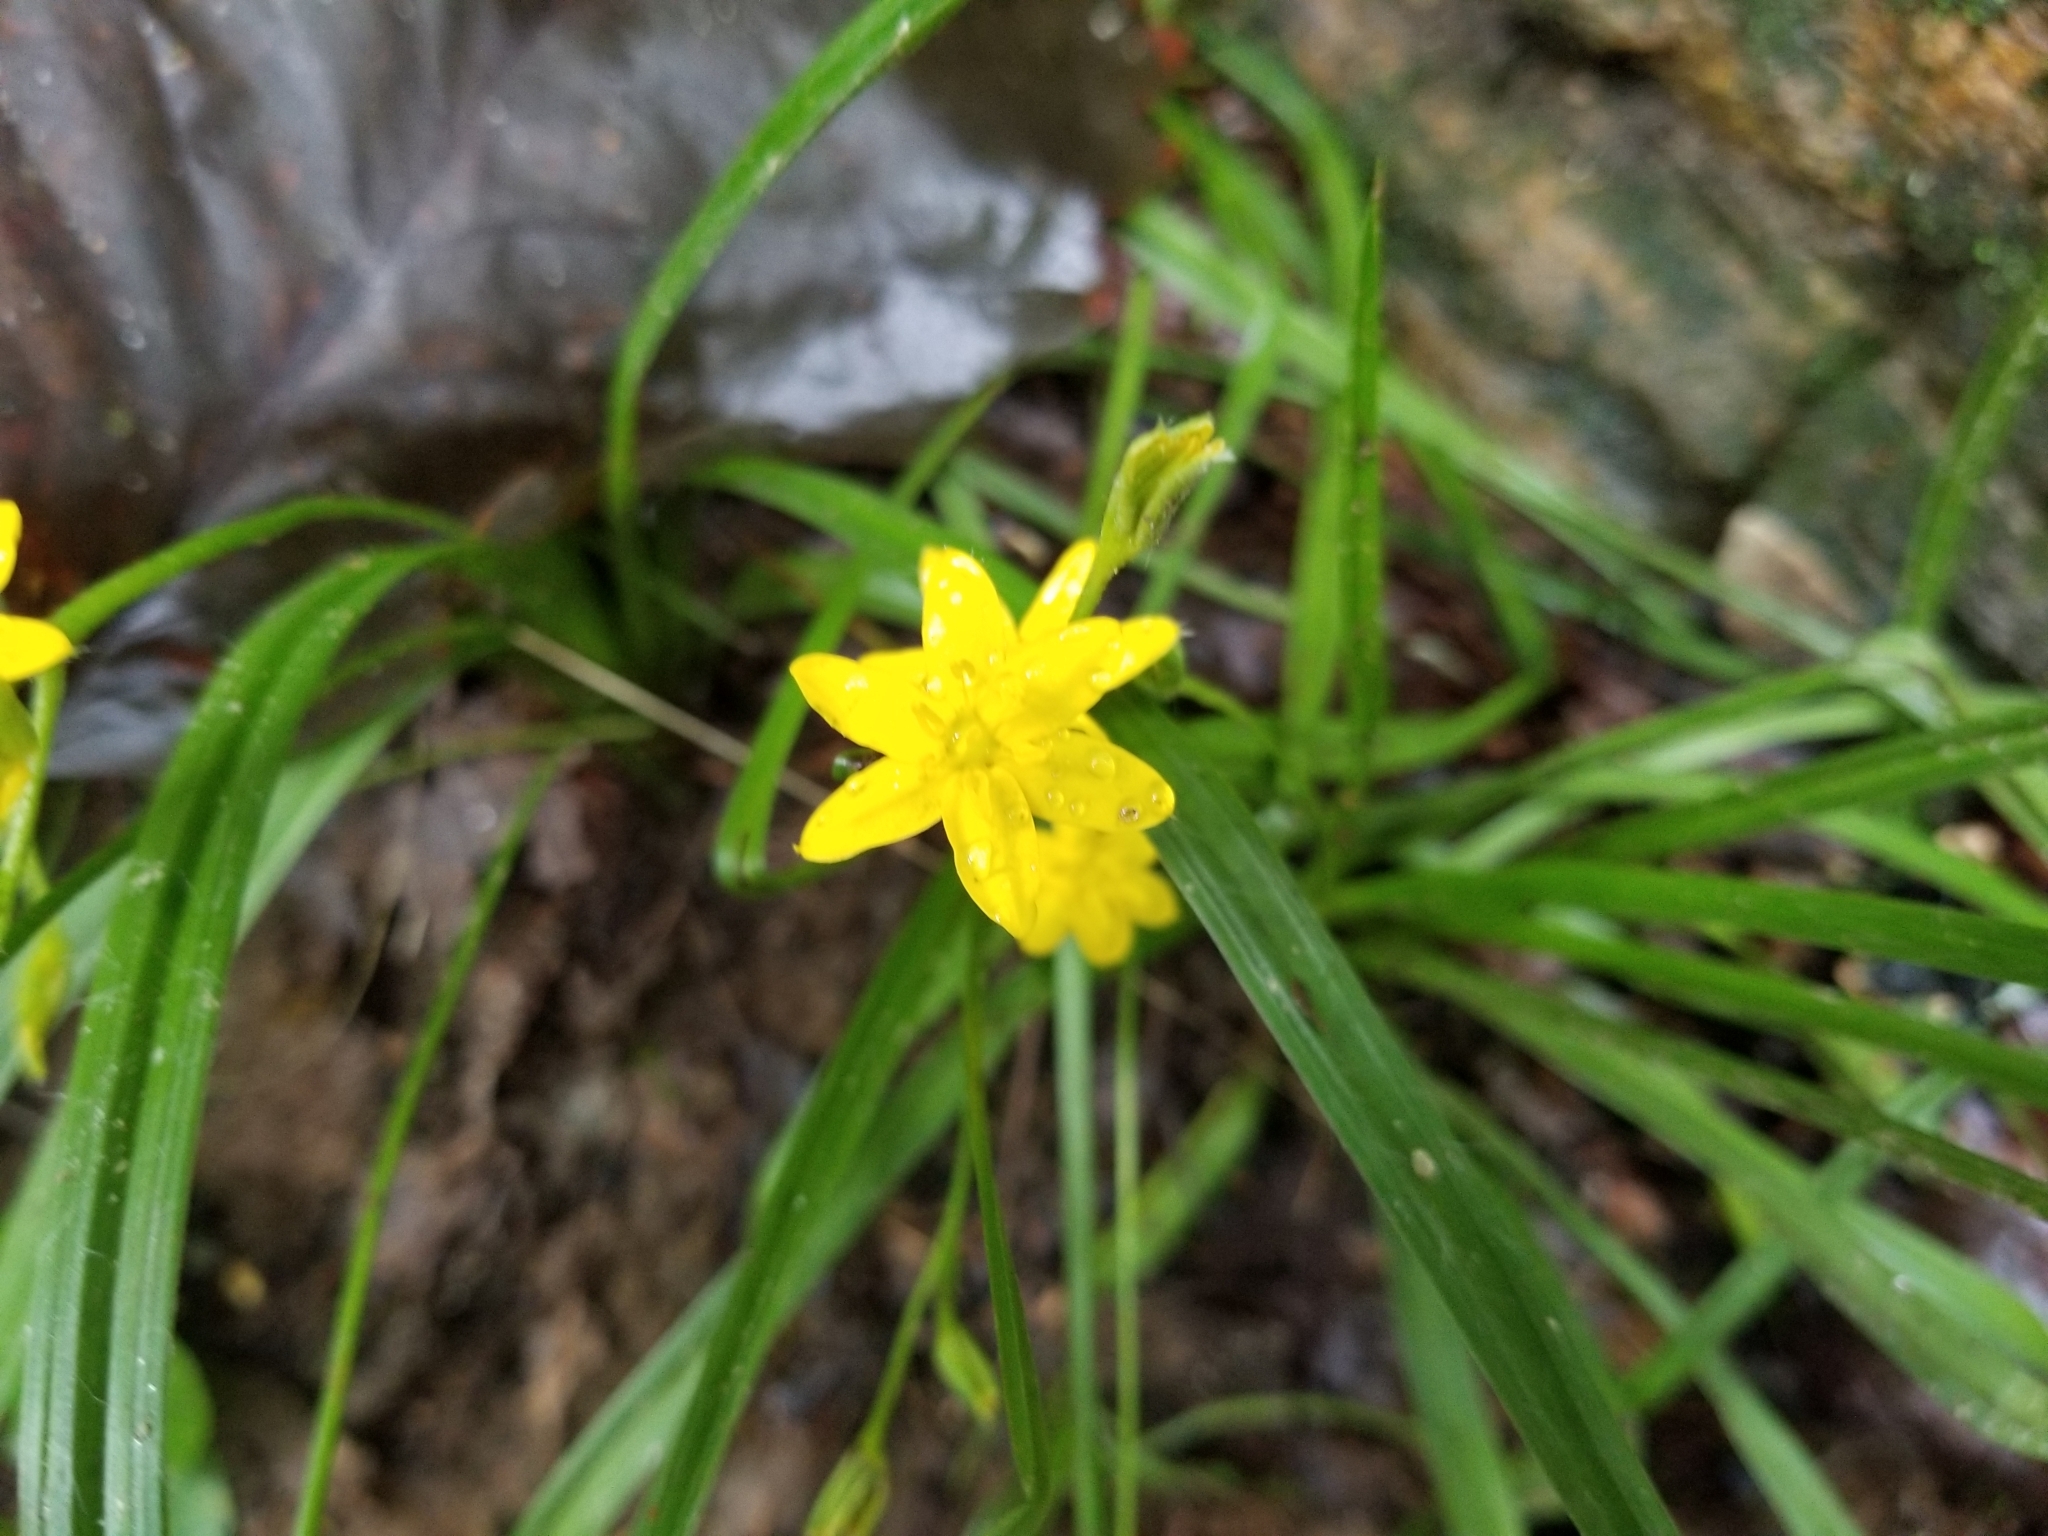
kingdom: Plantae
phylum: Tracheophyta
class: Liliopsida
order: Asparagales
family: Hypoxidaceae
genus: Hypoxis
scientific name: Hypoxis hirsuta
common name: Common goldstar
